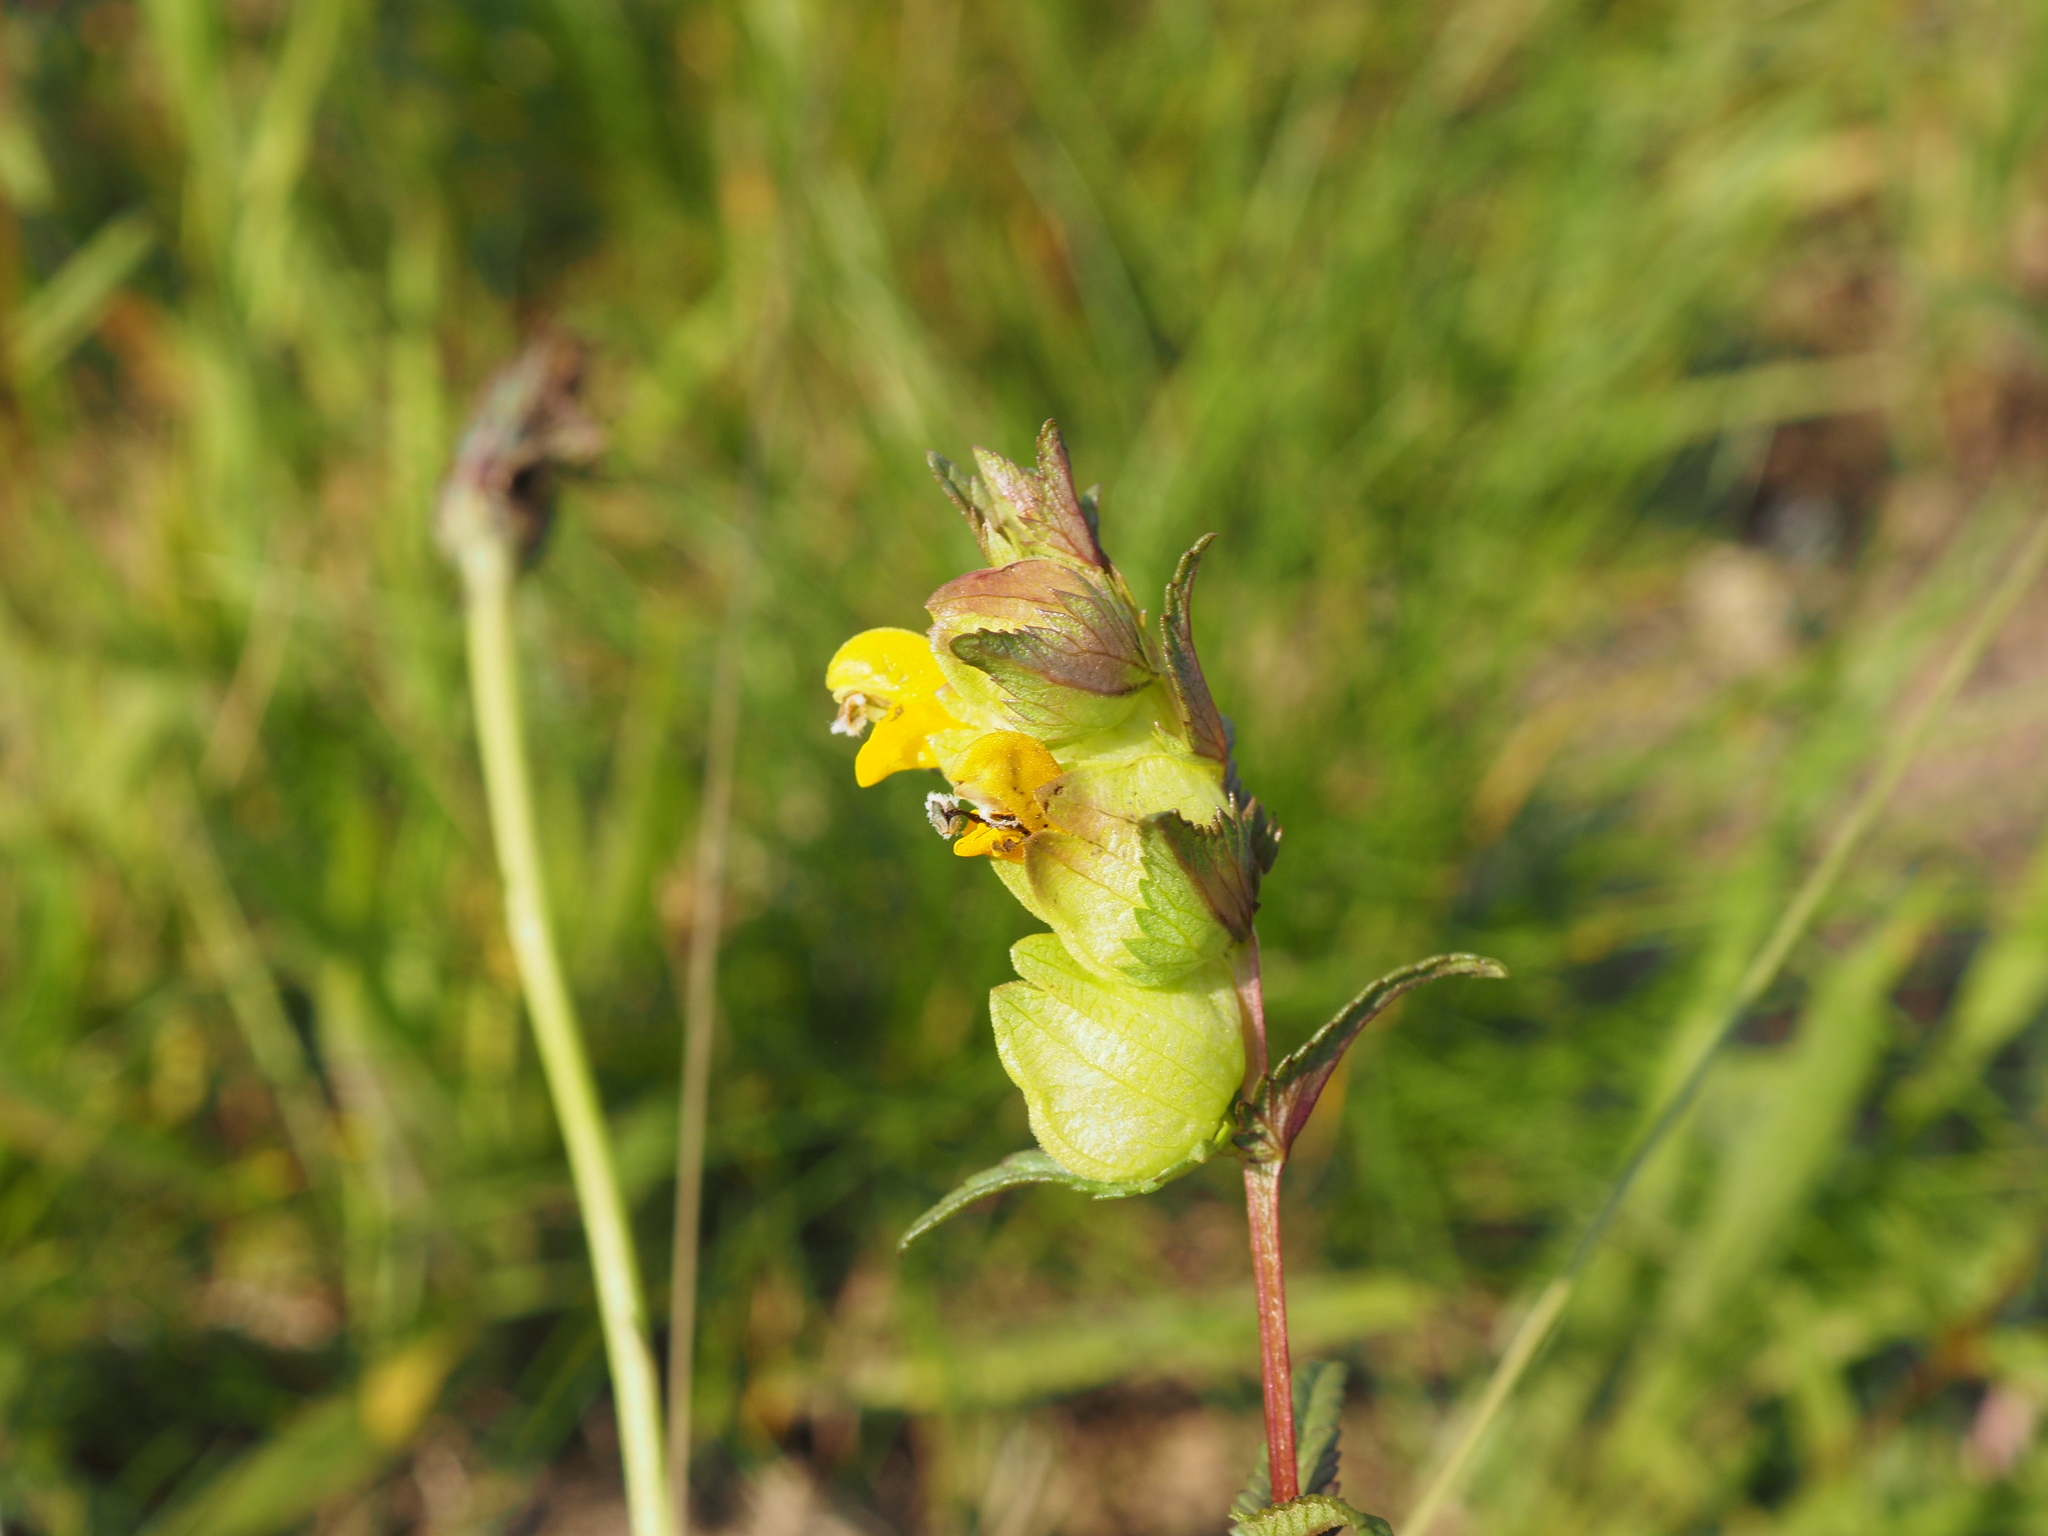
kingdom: Plantae
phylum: Tracheophyta
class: Magnoliopsida
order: Lamiales
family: Orobanchaceae
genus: Rhinanthus
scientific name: Rhinanthus serotinus
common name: Late-flowering yellow rattle
